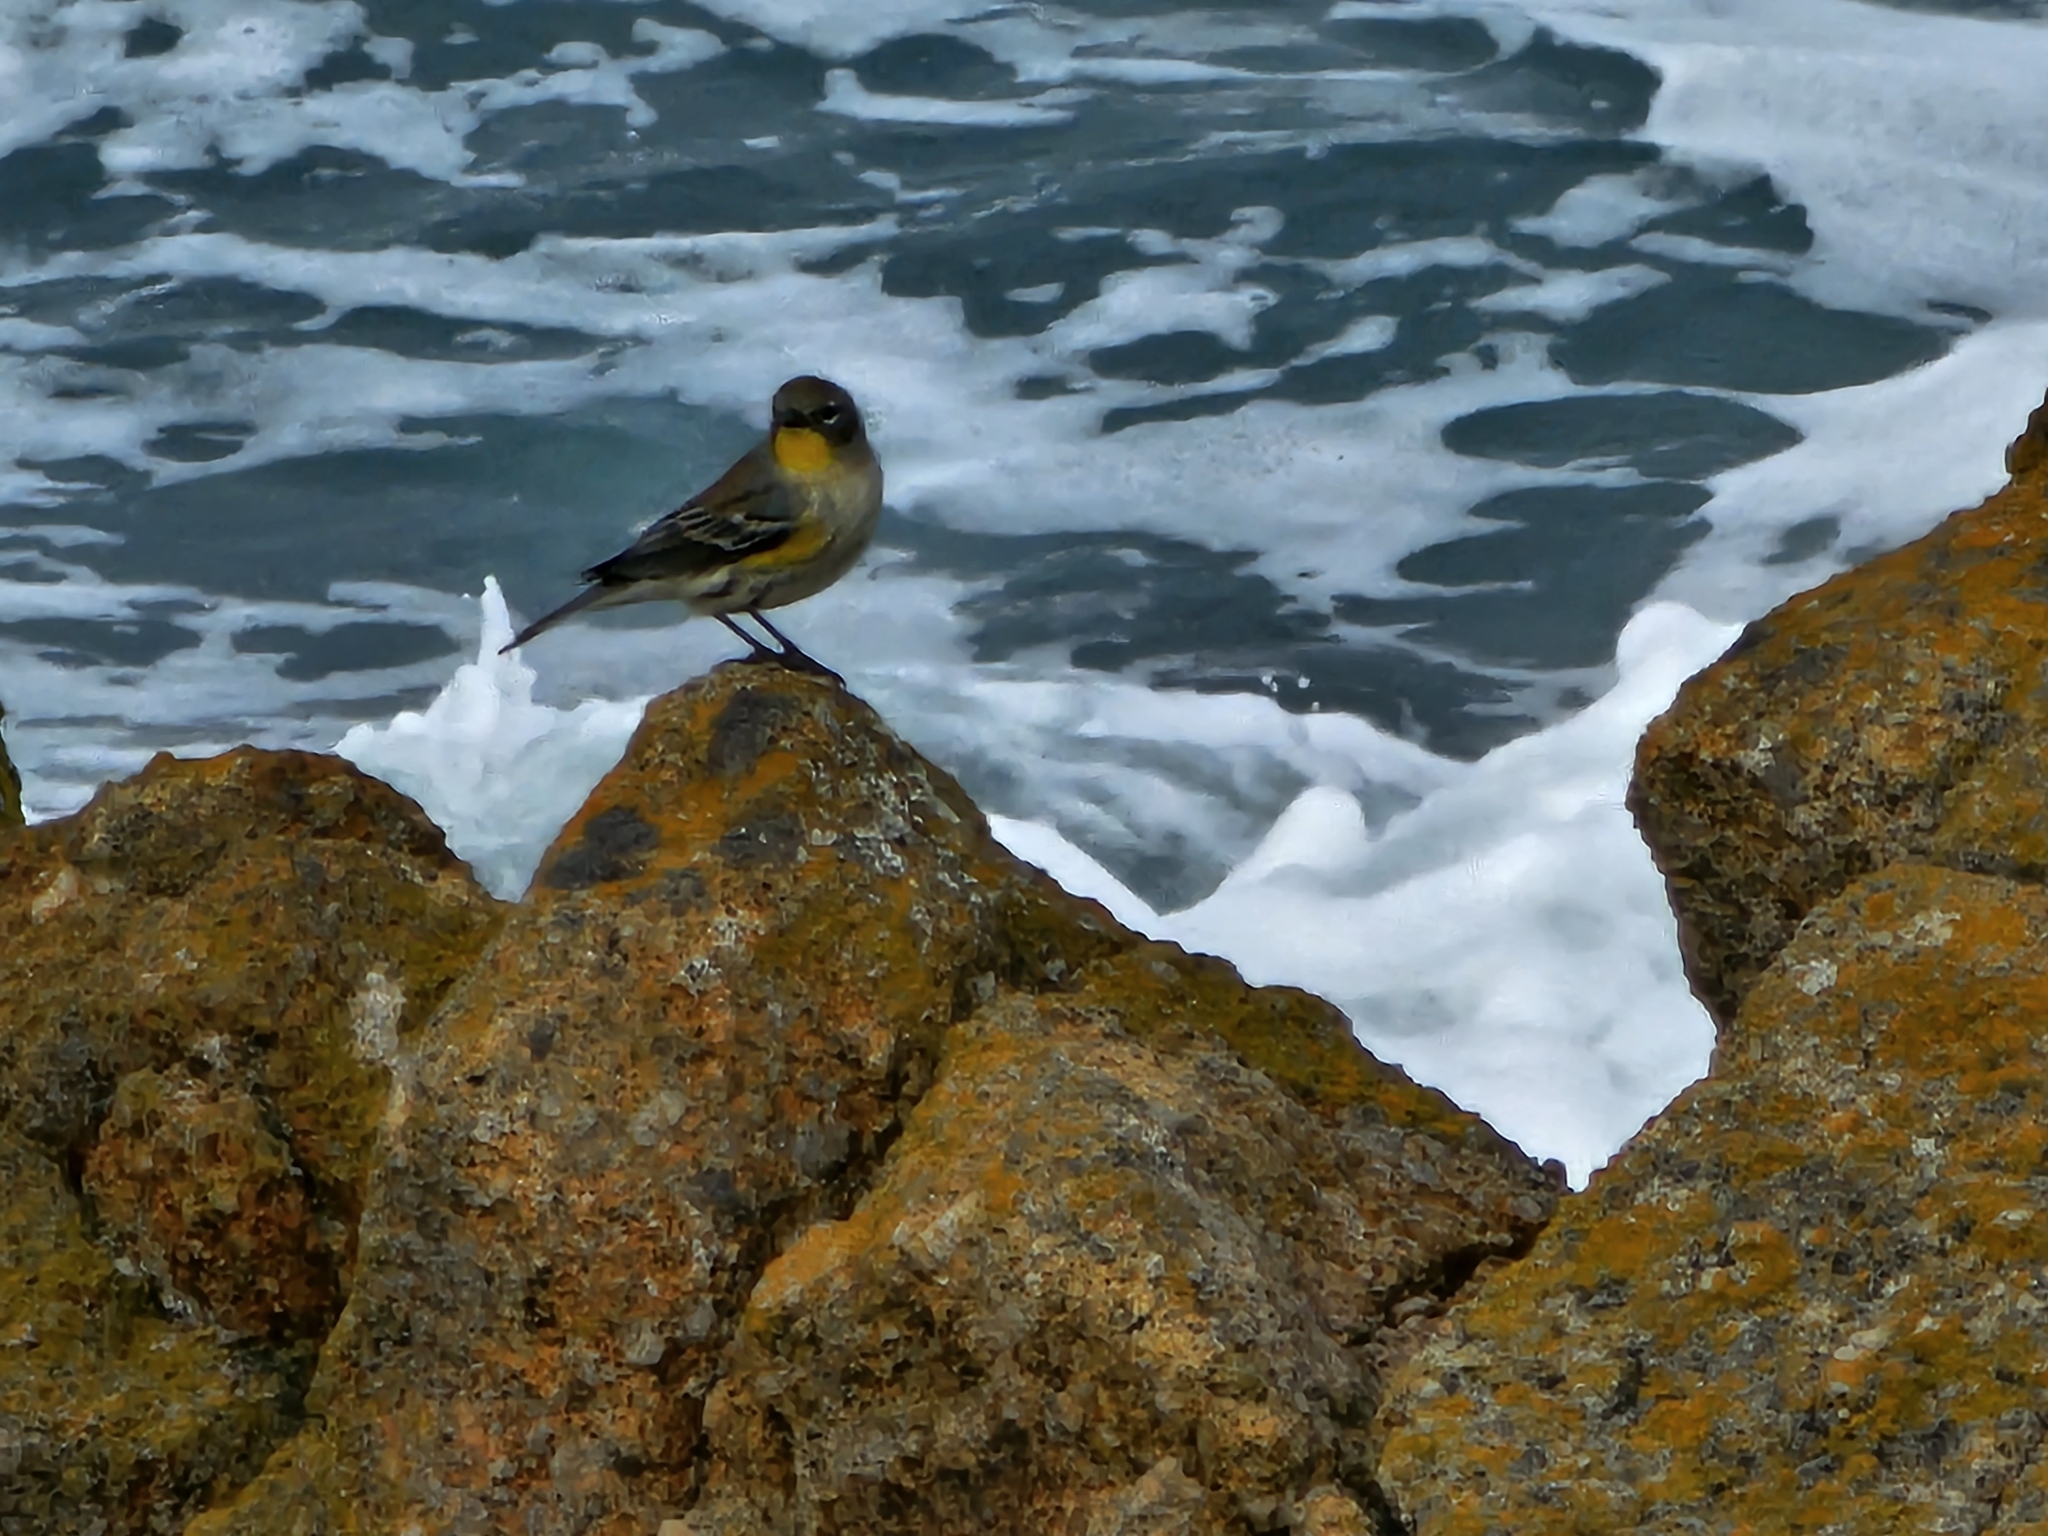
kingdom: Animalia
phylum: Chordata
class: Aves
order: Passeriformes
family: Parulidae
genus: Setophaga
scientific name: Setophaga coronata
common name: Myrtle warbler
